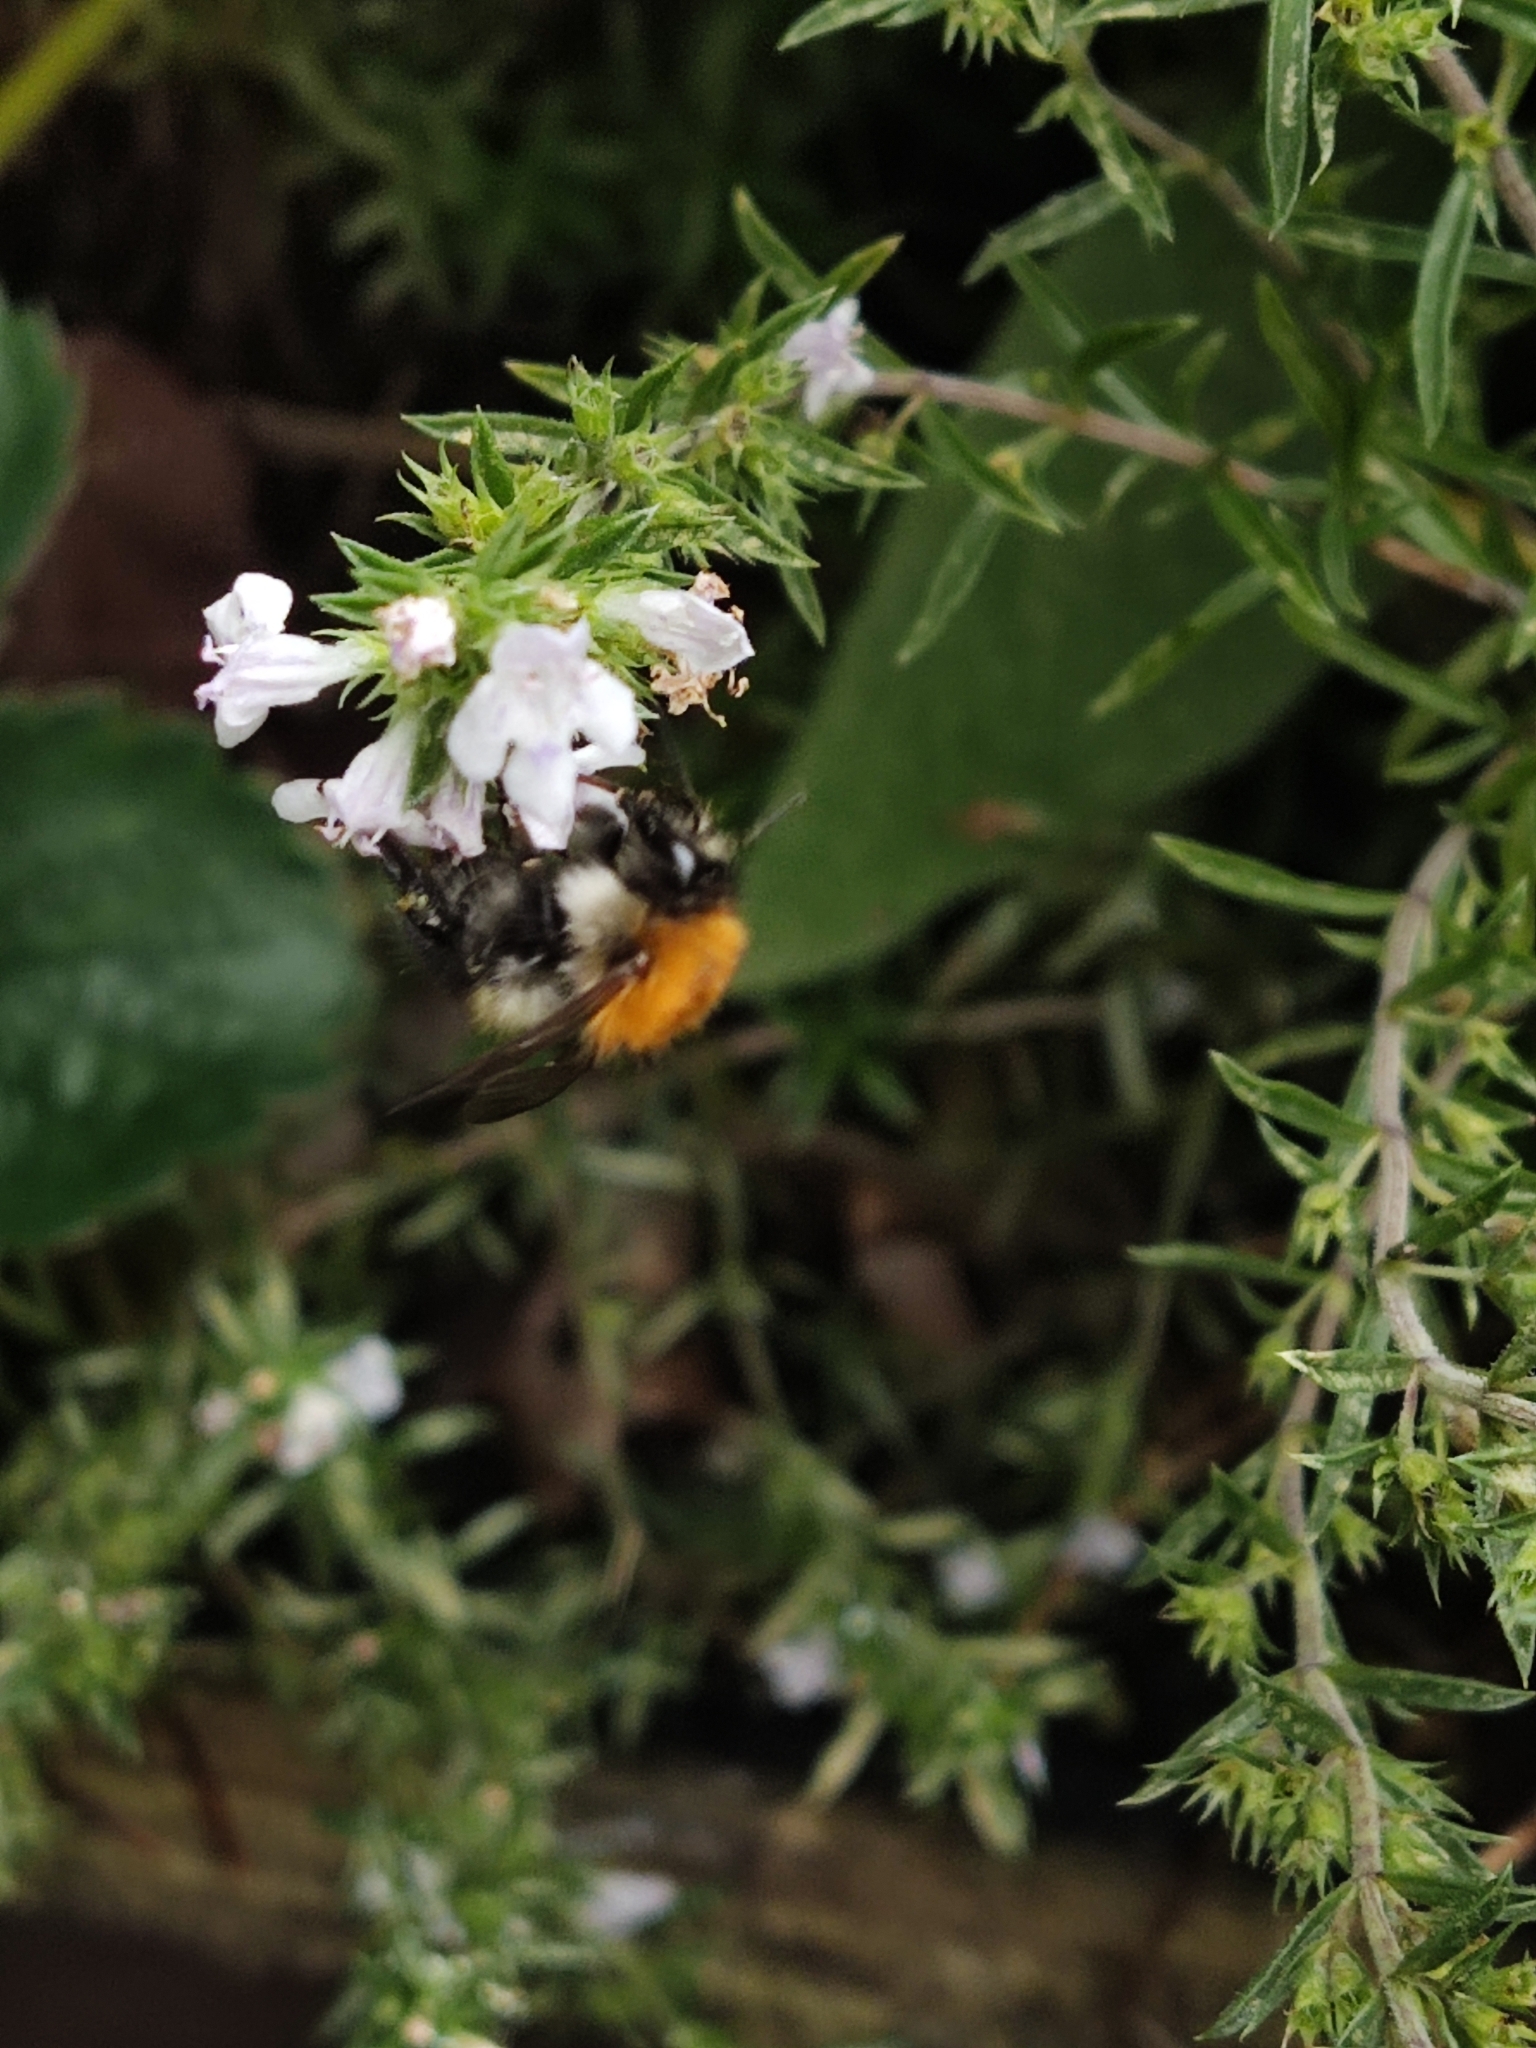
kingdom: Animalia
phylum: Arthropoda
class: Insecta
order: Hymenoptera
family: Apidae
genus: Bombus
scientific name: Bombus pascuorum
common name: Common carder bee
